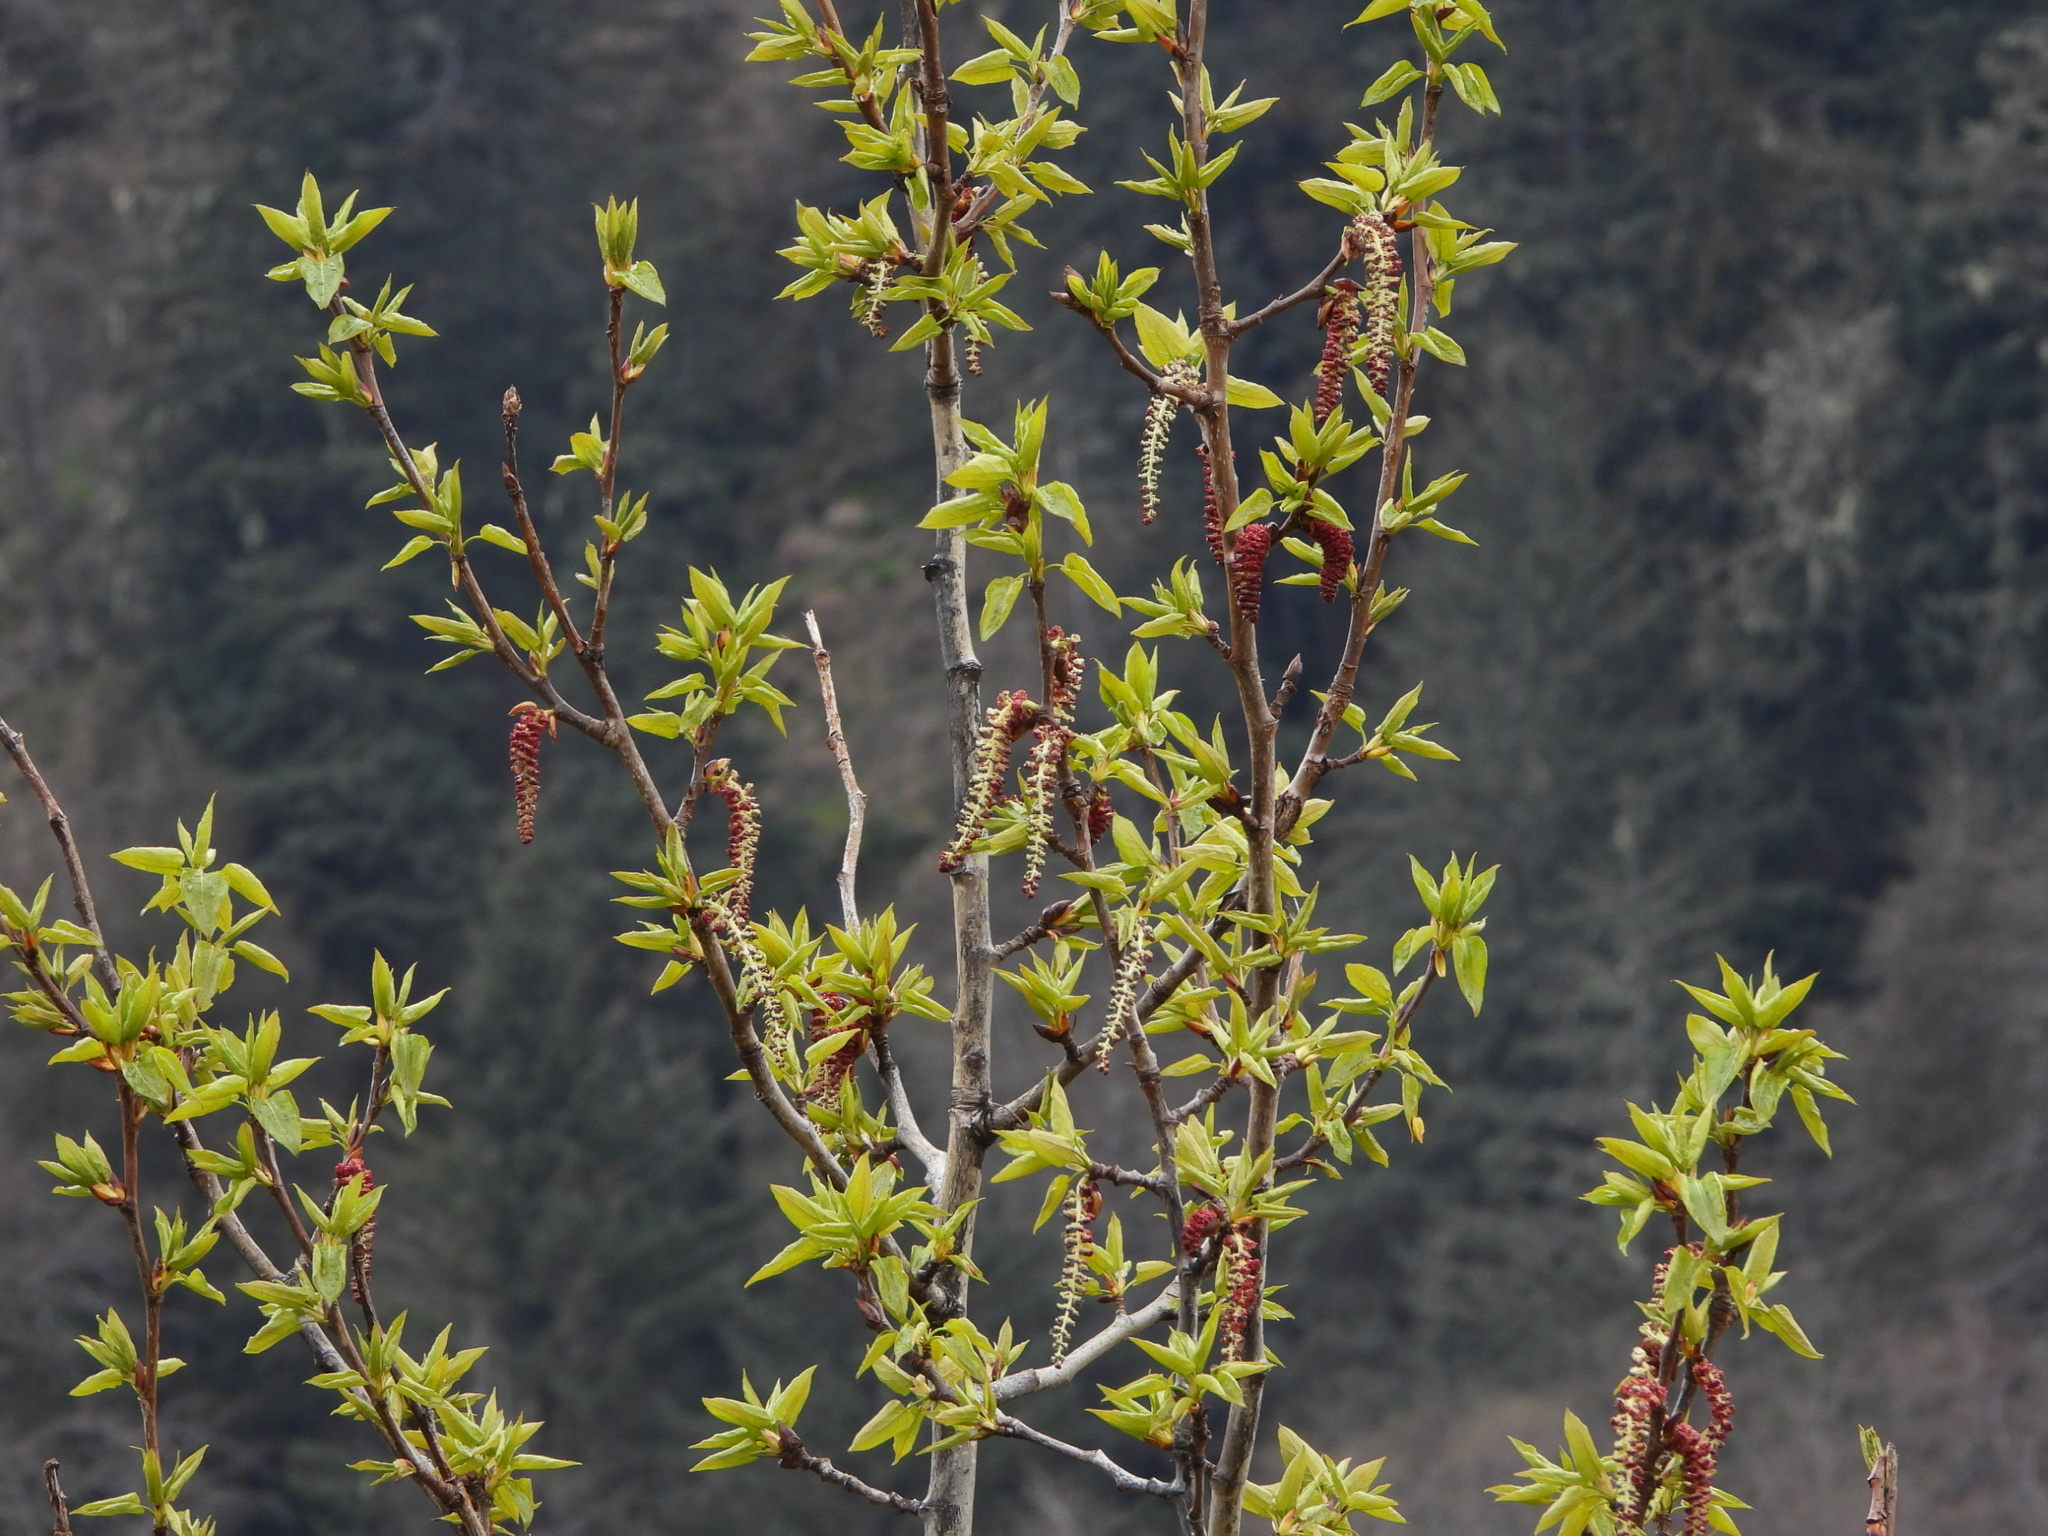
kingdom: Plantae
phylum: Tracheophyta
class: Magnoliopsida
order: Malpighiales
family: Salicaceae
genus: Populus
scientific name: Populus trichocarpa
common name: Black cottonwood
